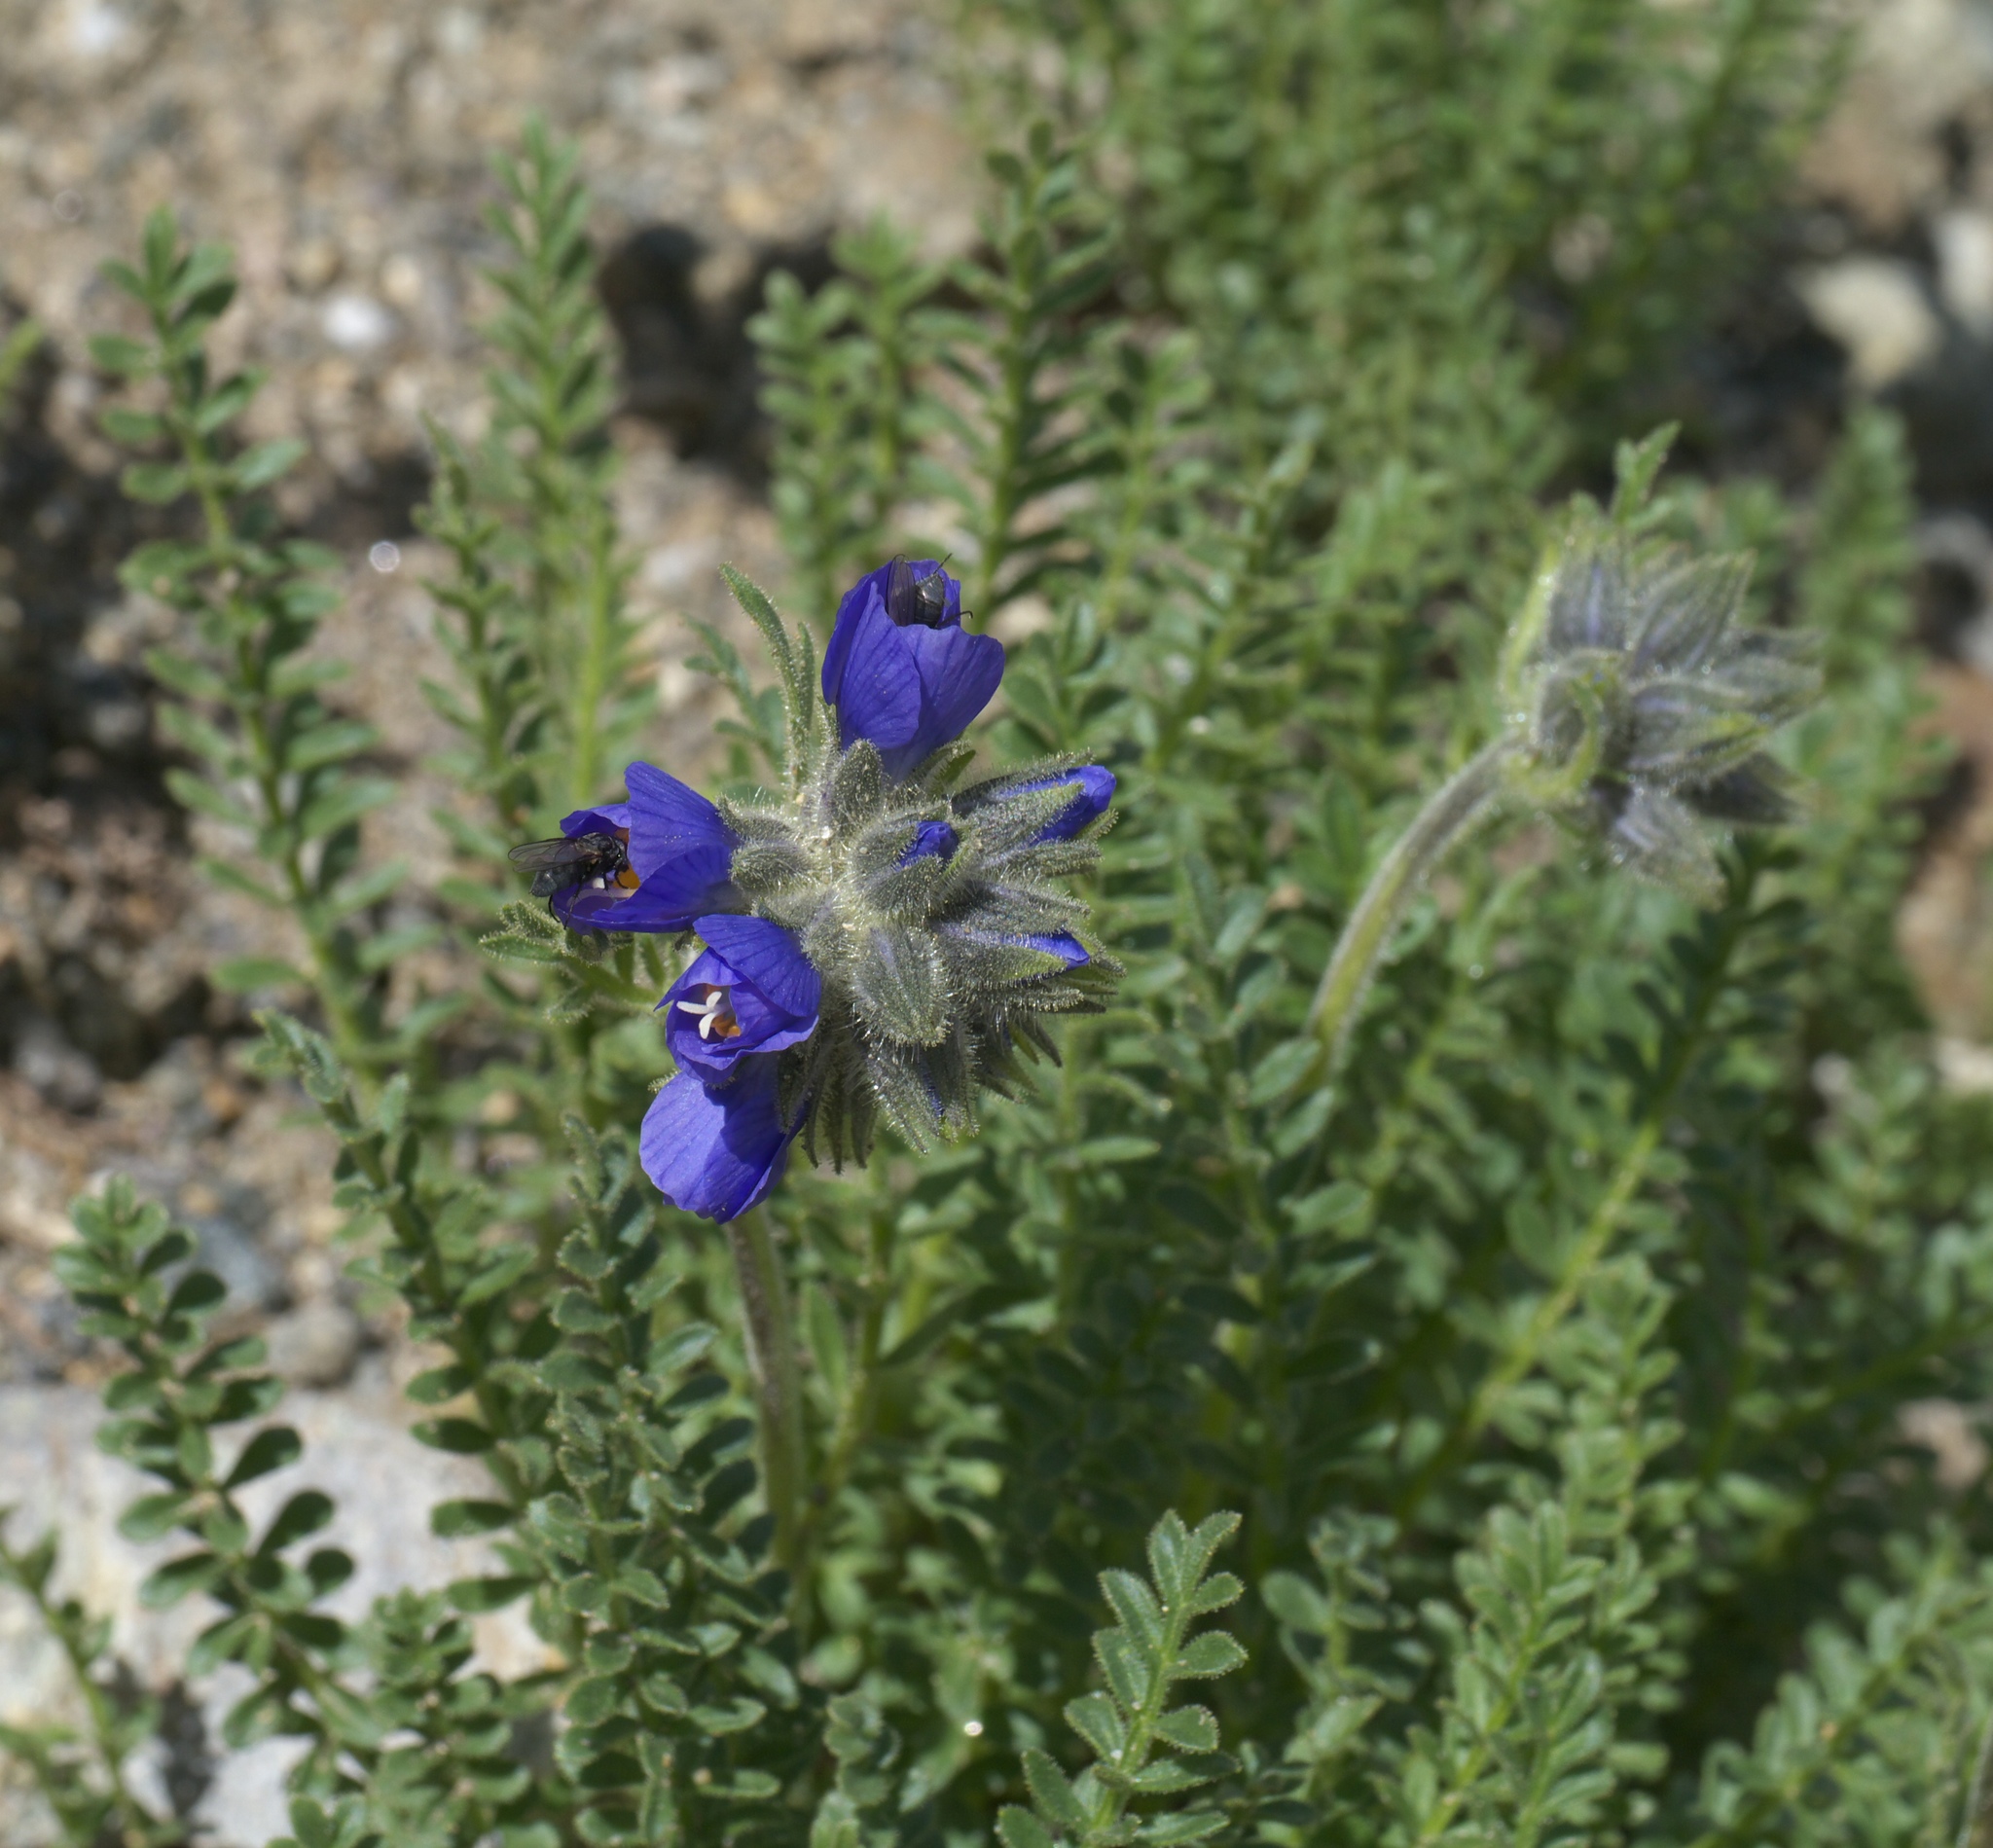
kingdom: Plantae
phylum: Tracheophyta
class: Magnoliopsida
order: Ericales
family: Polemoniaceae
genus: Polemonium
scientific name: Polemonium viscosum
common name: Skunk jacob's-ladder
